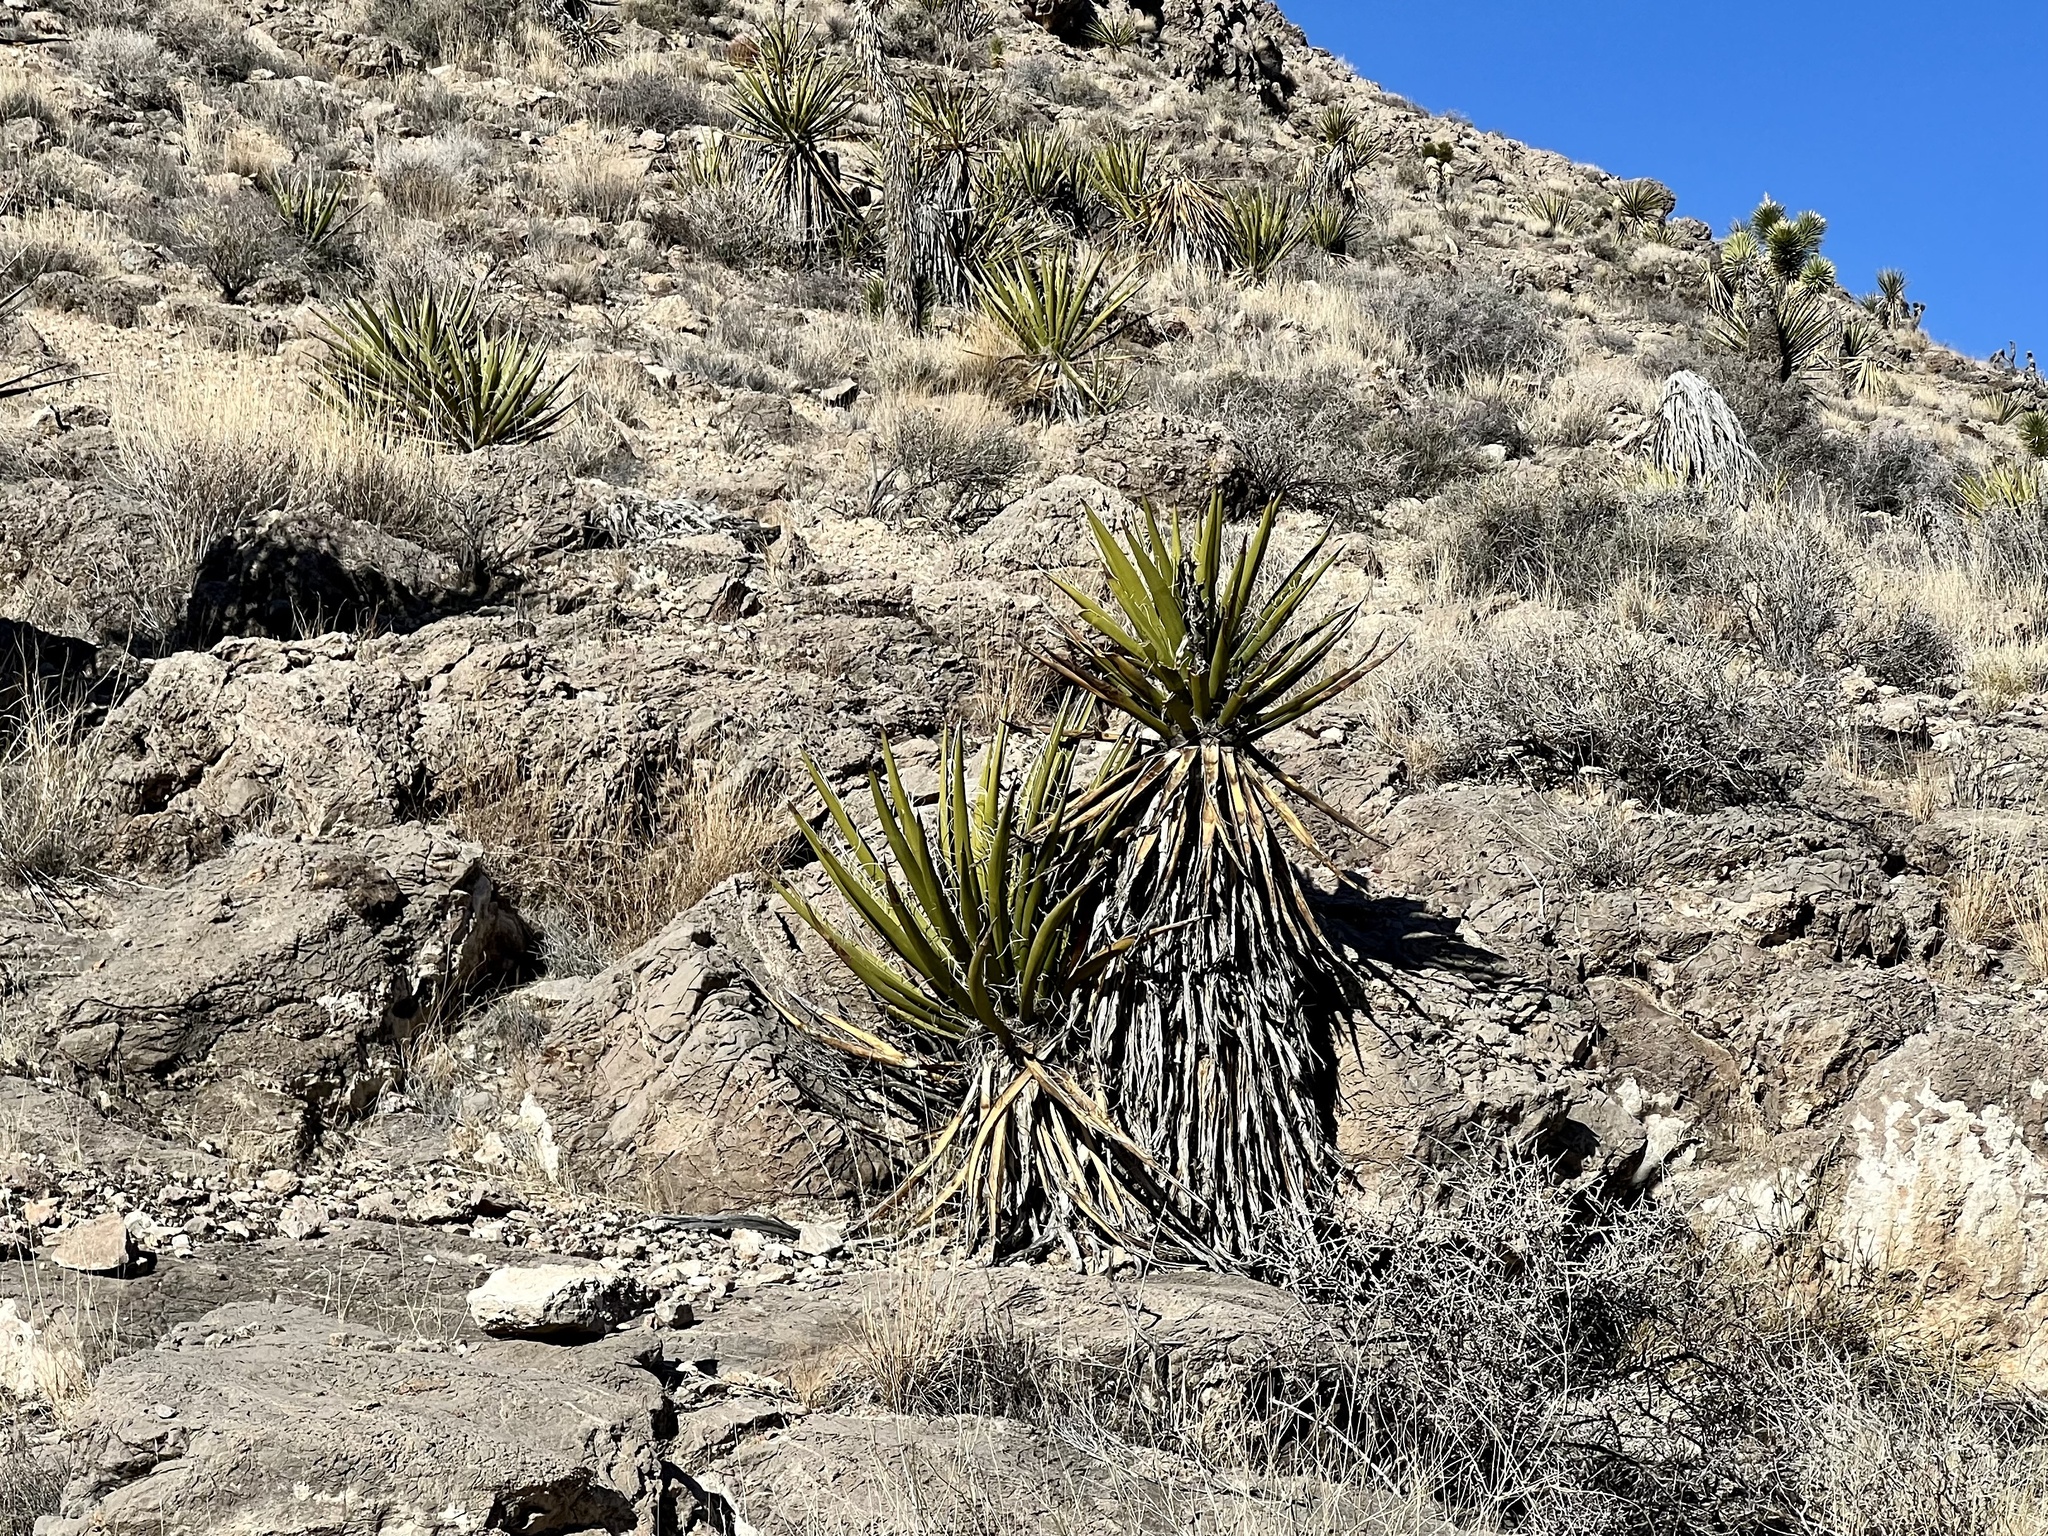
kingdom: Plantae
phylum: Tracheophyta
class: Liliopsida
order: Asparagales
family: Asparagaceae
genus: Yucca
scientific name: Yucca schidigera
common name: Mojave yucca
